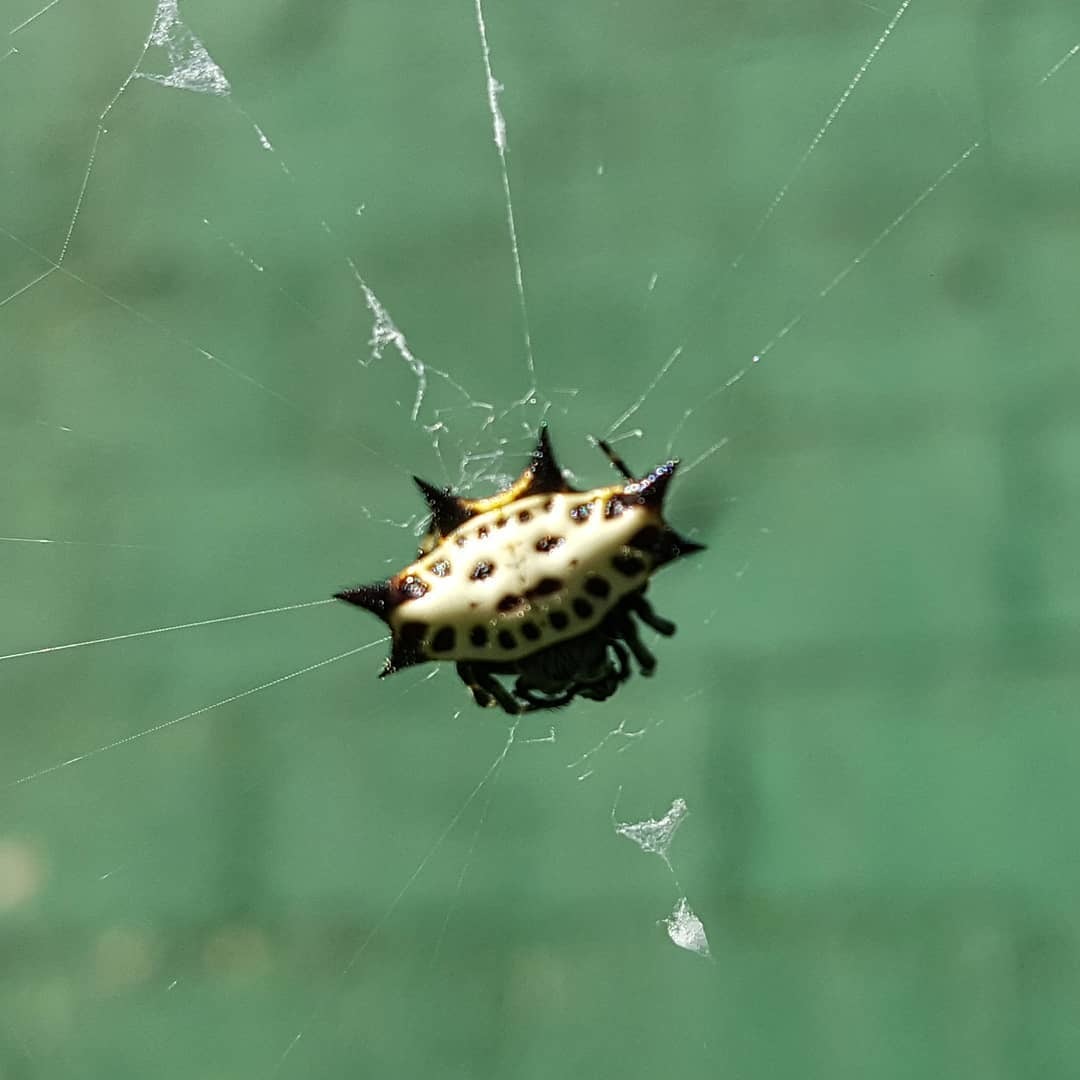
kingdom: Animalia
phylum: Arthropoda
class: Arachnida
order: Araneae
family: Araneidae
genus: Gasteracantha
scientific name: Gasteracantha cancriformis
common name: Orb weavers
